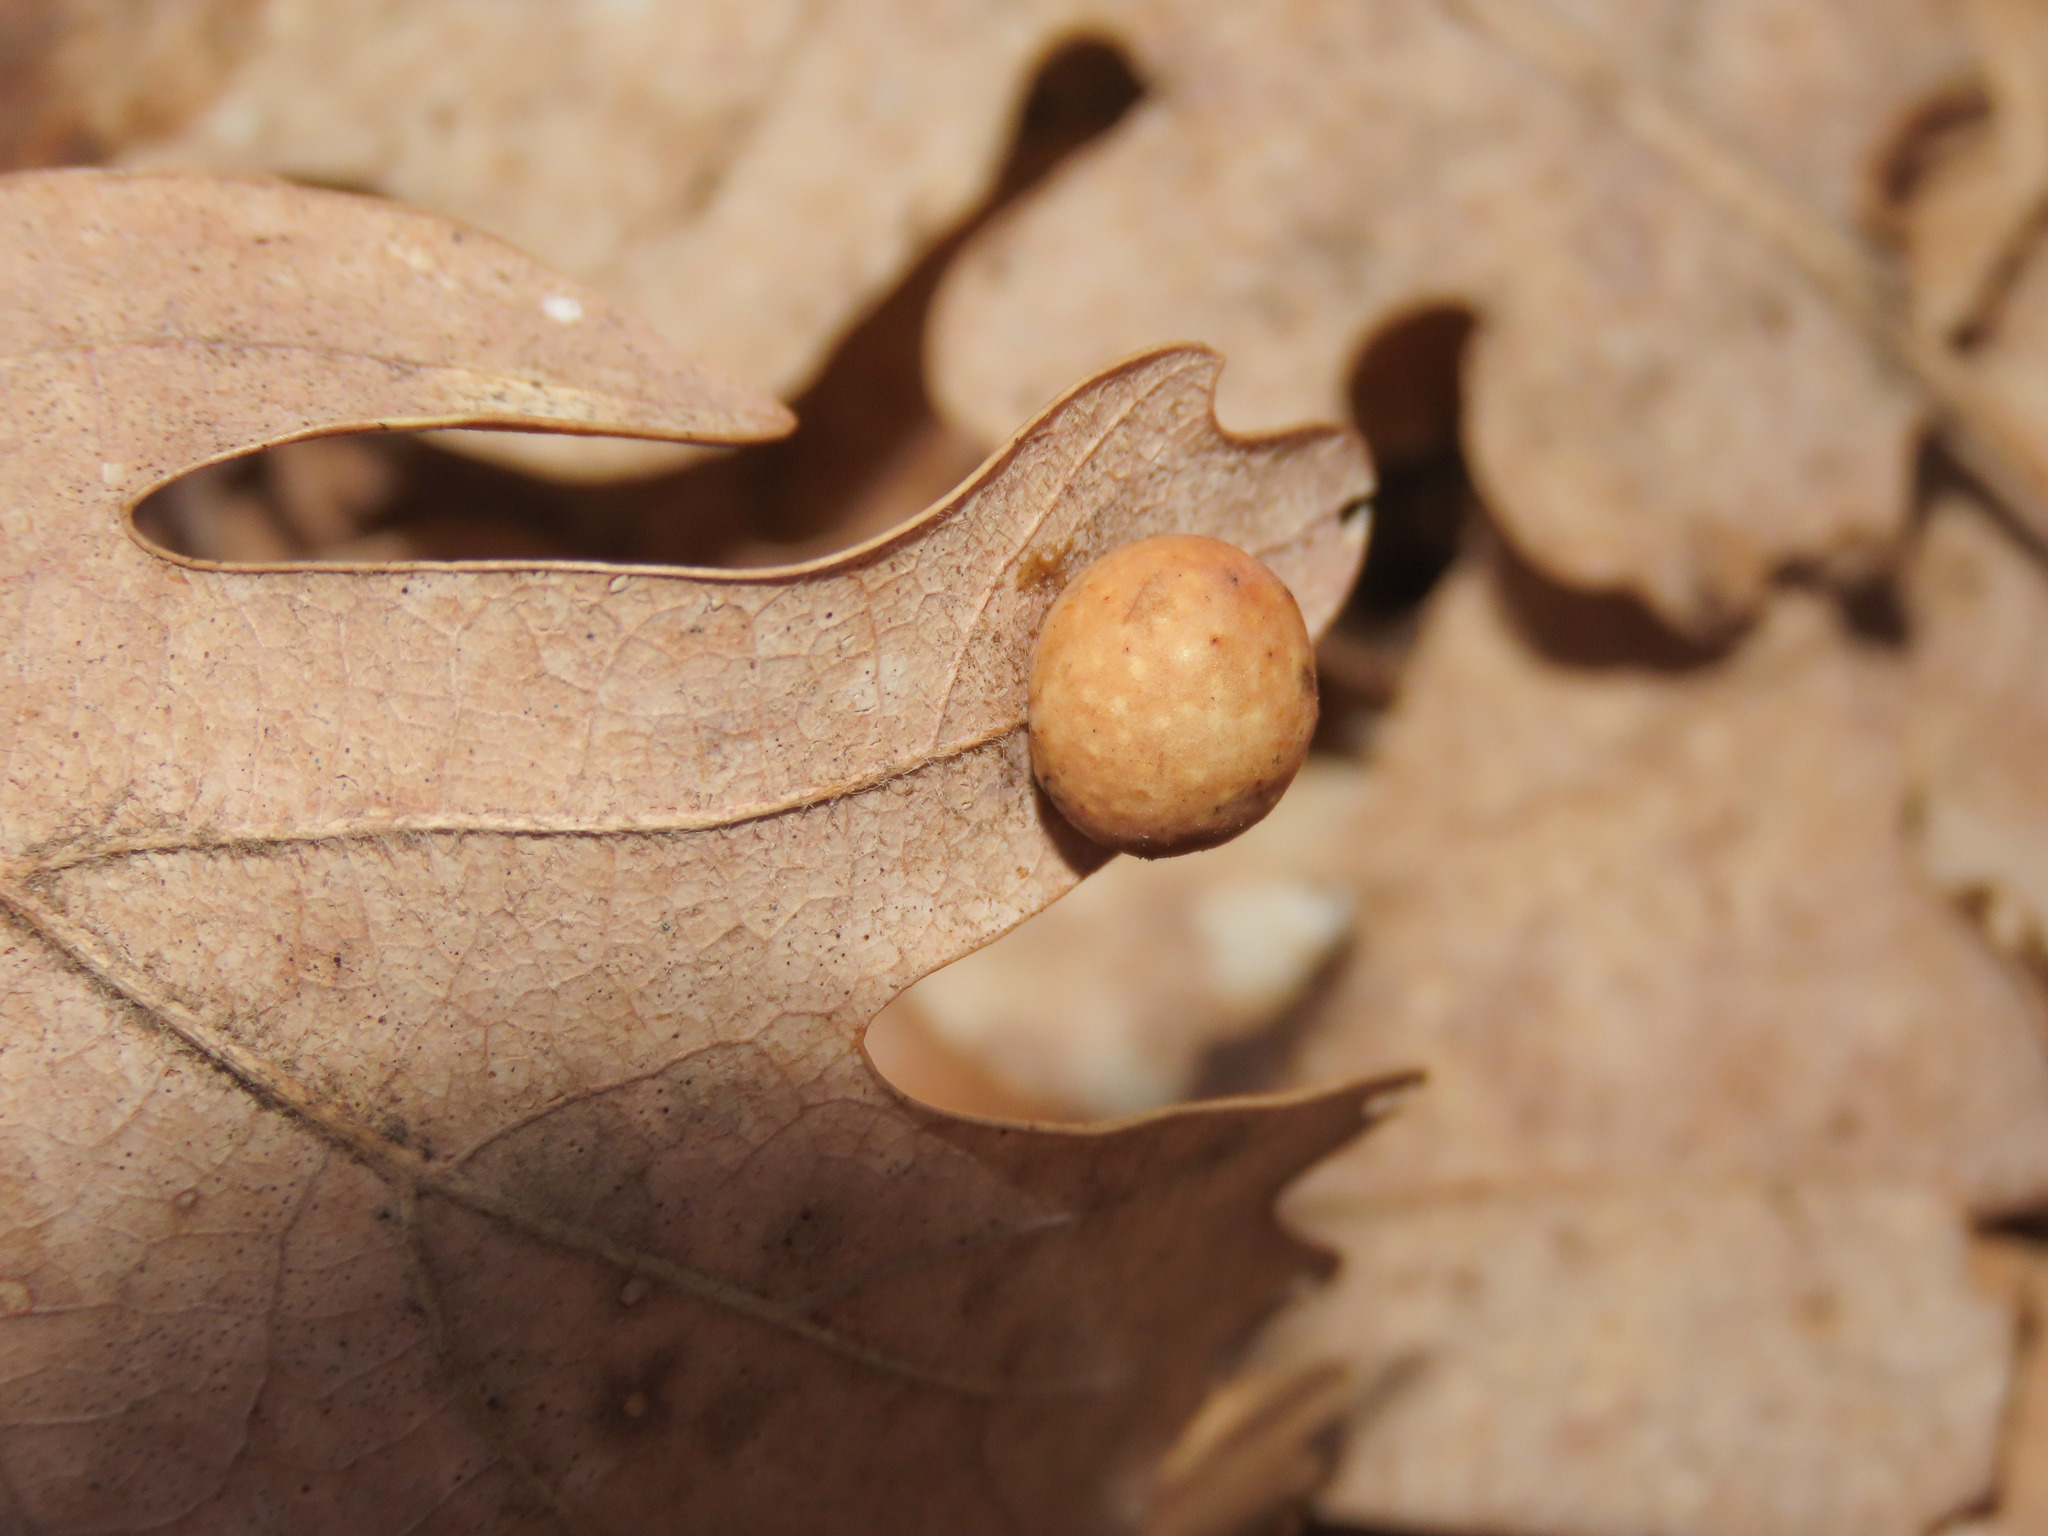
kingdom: Animalia
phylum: Arthropoda
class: Insecta
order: Hymenoptera
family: Cynipidae
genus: Cynips
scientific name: Cynips longiventris
